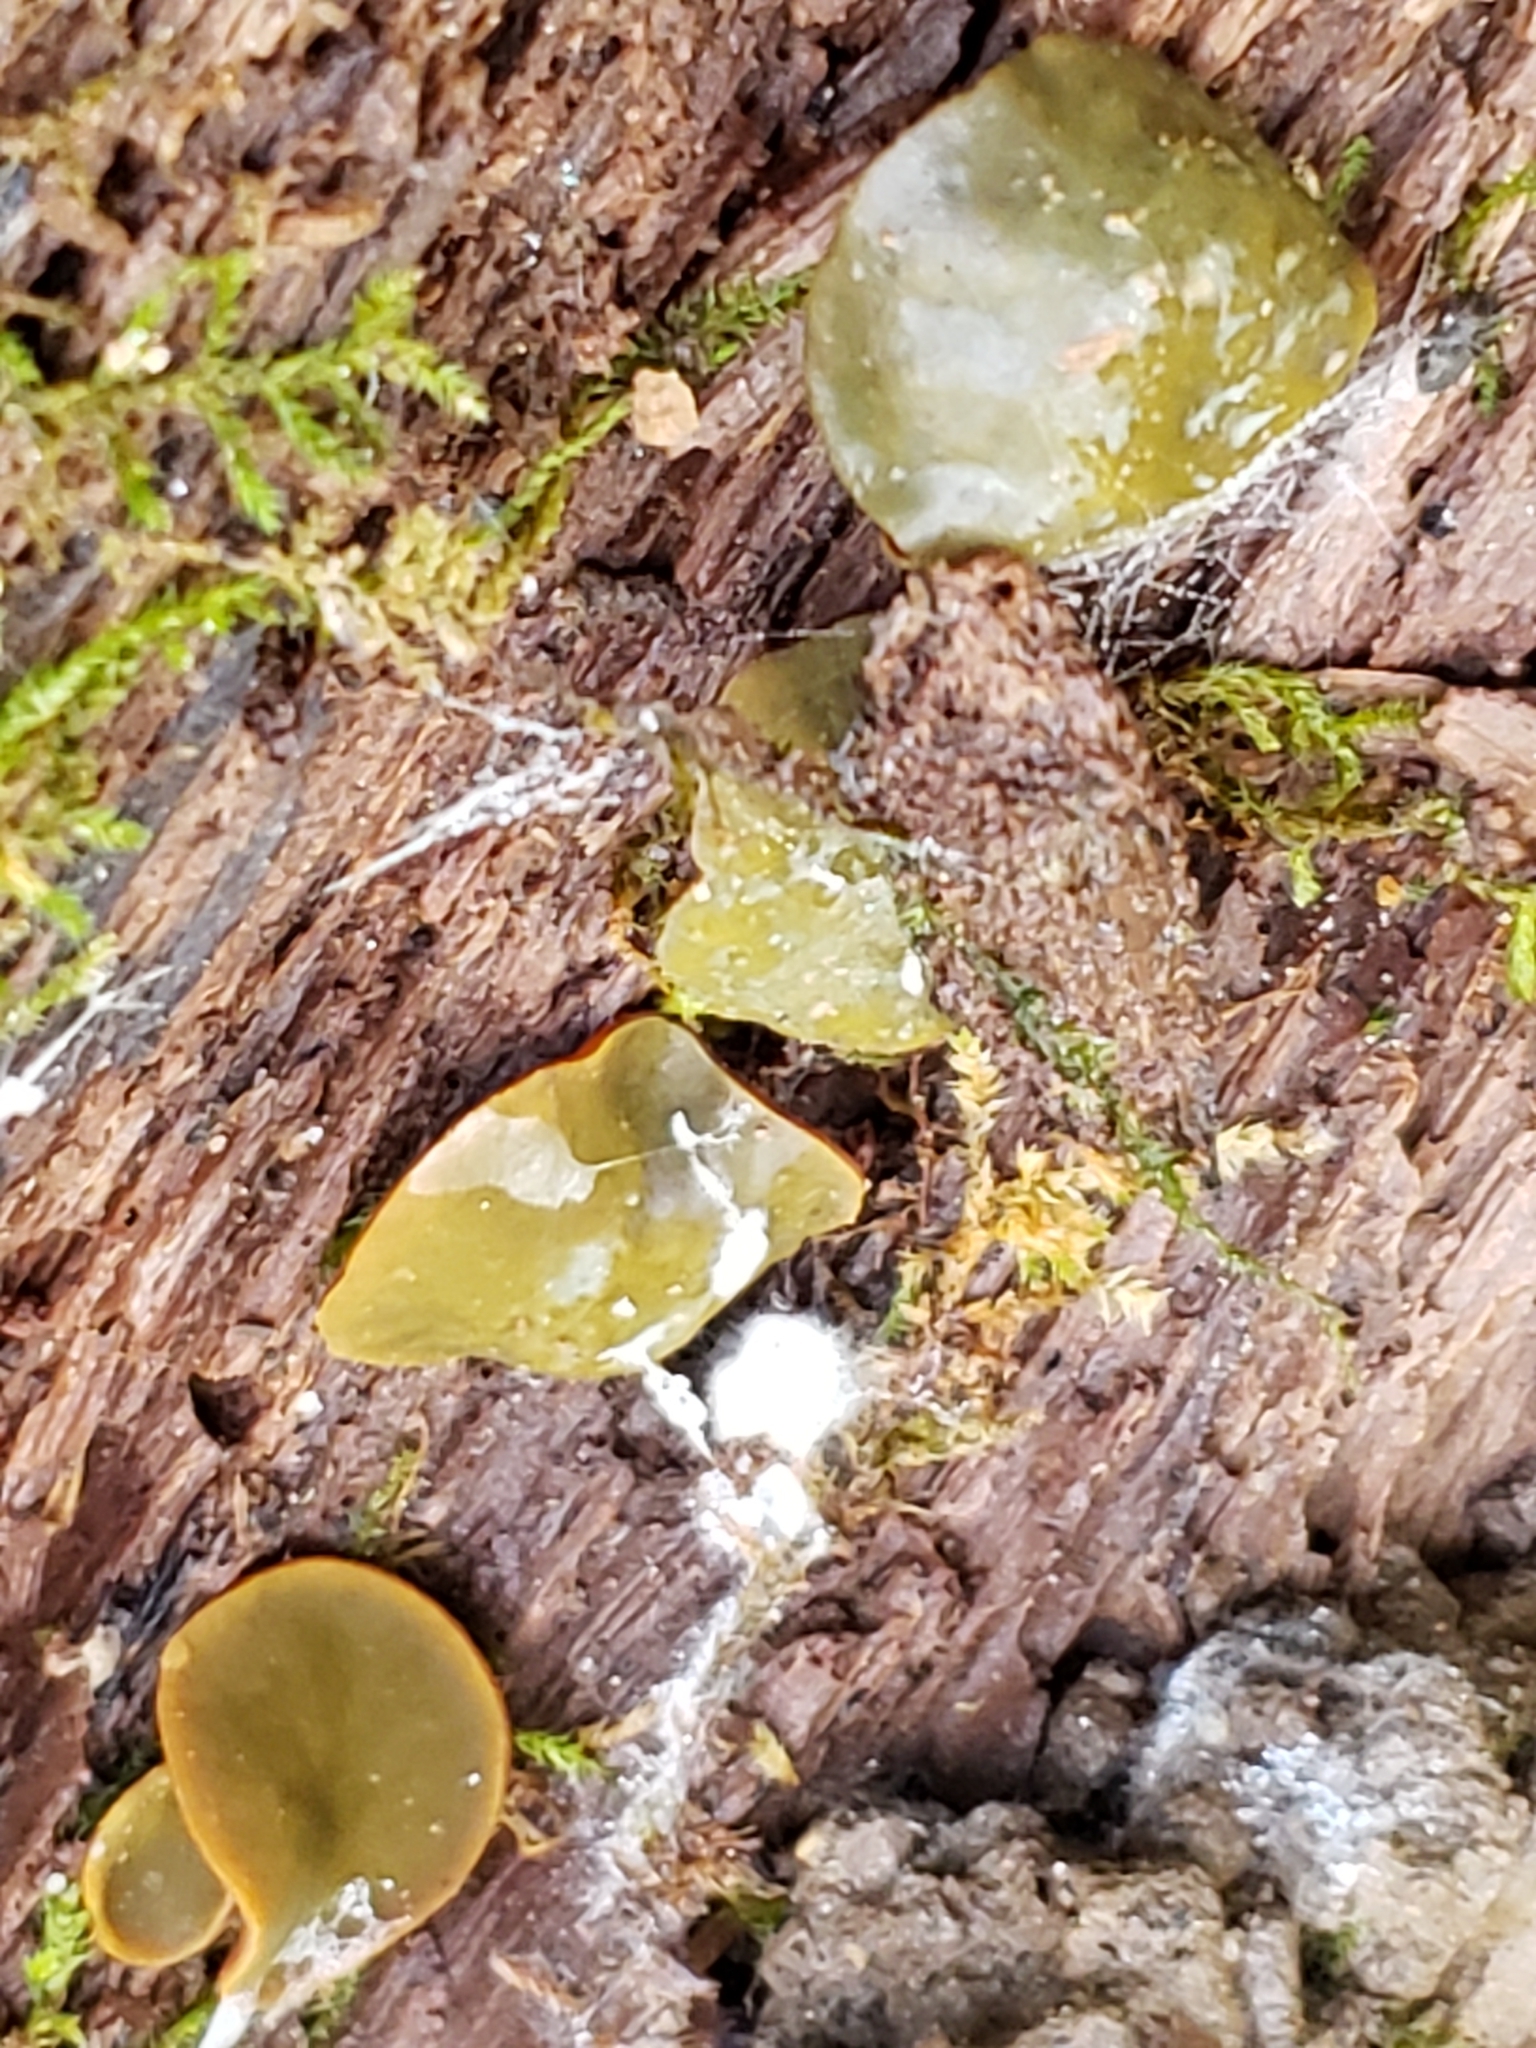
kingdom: Fungi
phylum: Ascomycota
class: Leotiomycetes
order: Helotiales
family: Cenangiaceae
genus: Chlorencoelia
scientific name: Chlorencoelia
